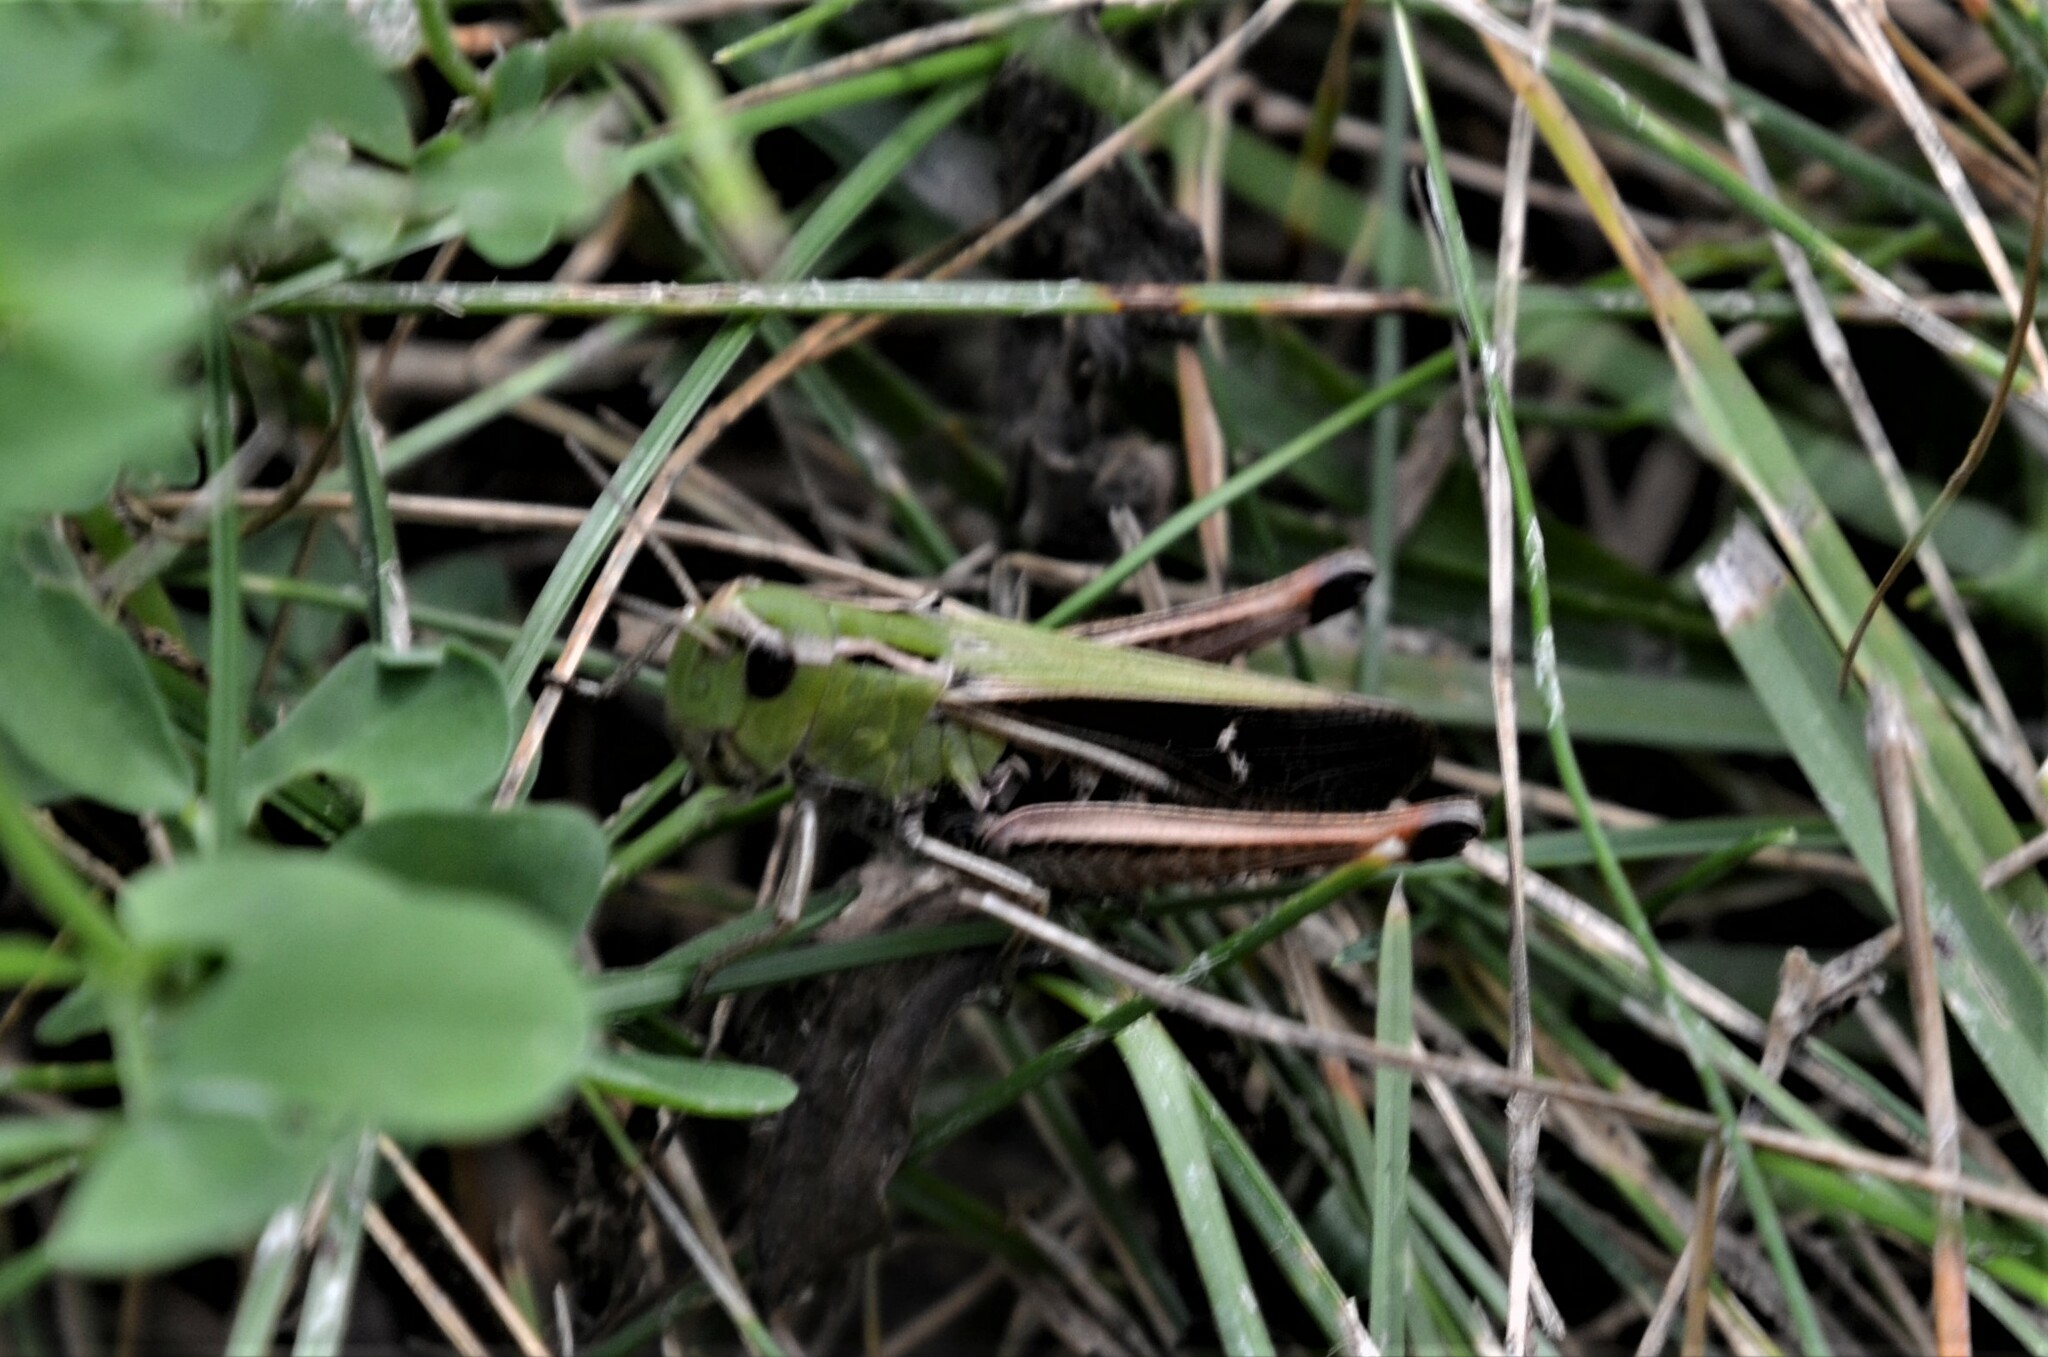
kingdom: Animalia
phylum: Arthropoda
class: Insecta
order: Orthoptera
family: Acrididae
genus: Stenobothrus
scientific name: Stenobothrus lineatus
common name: Stripe-winged grasshopper
